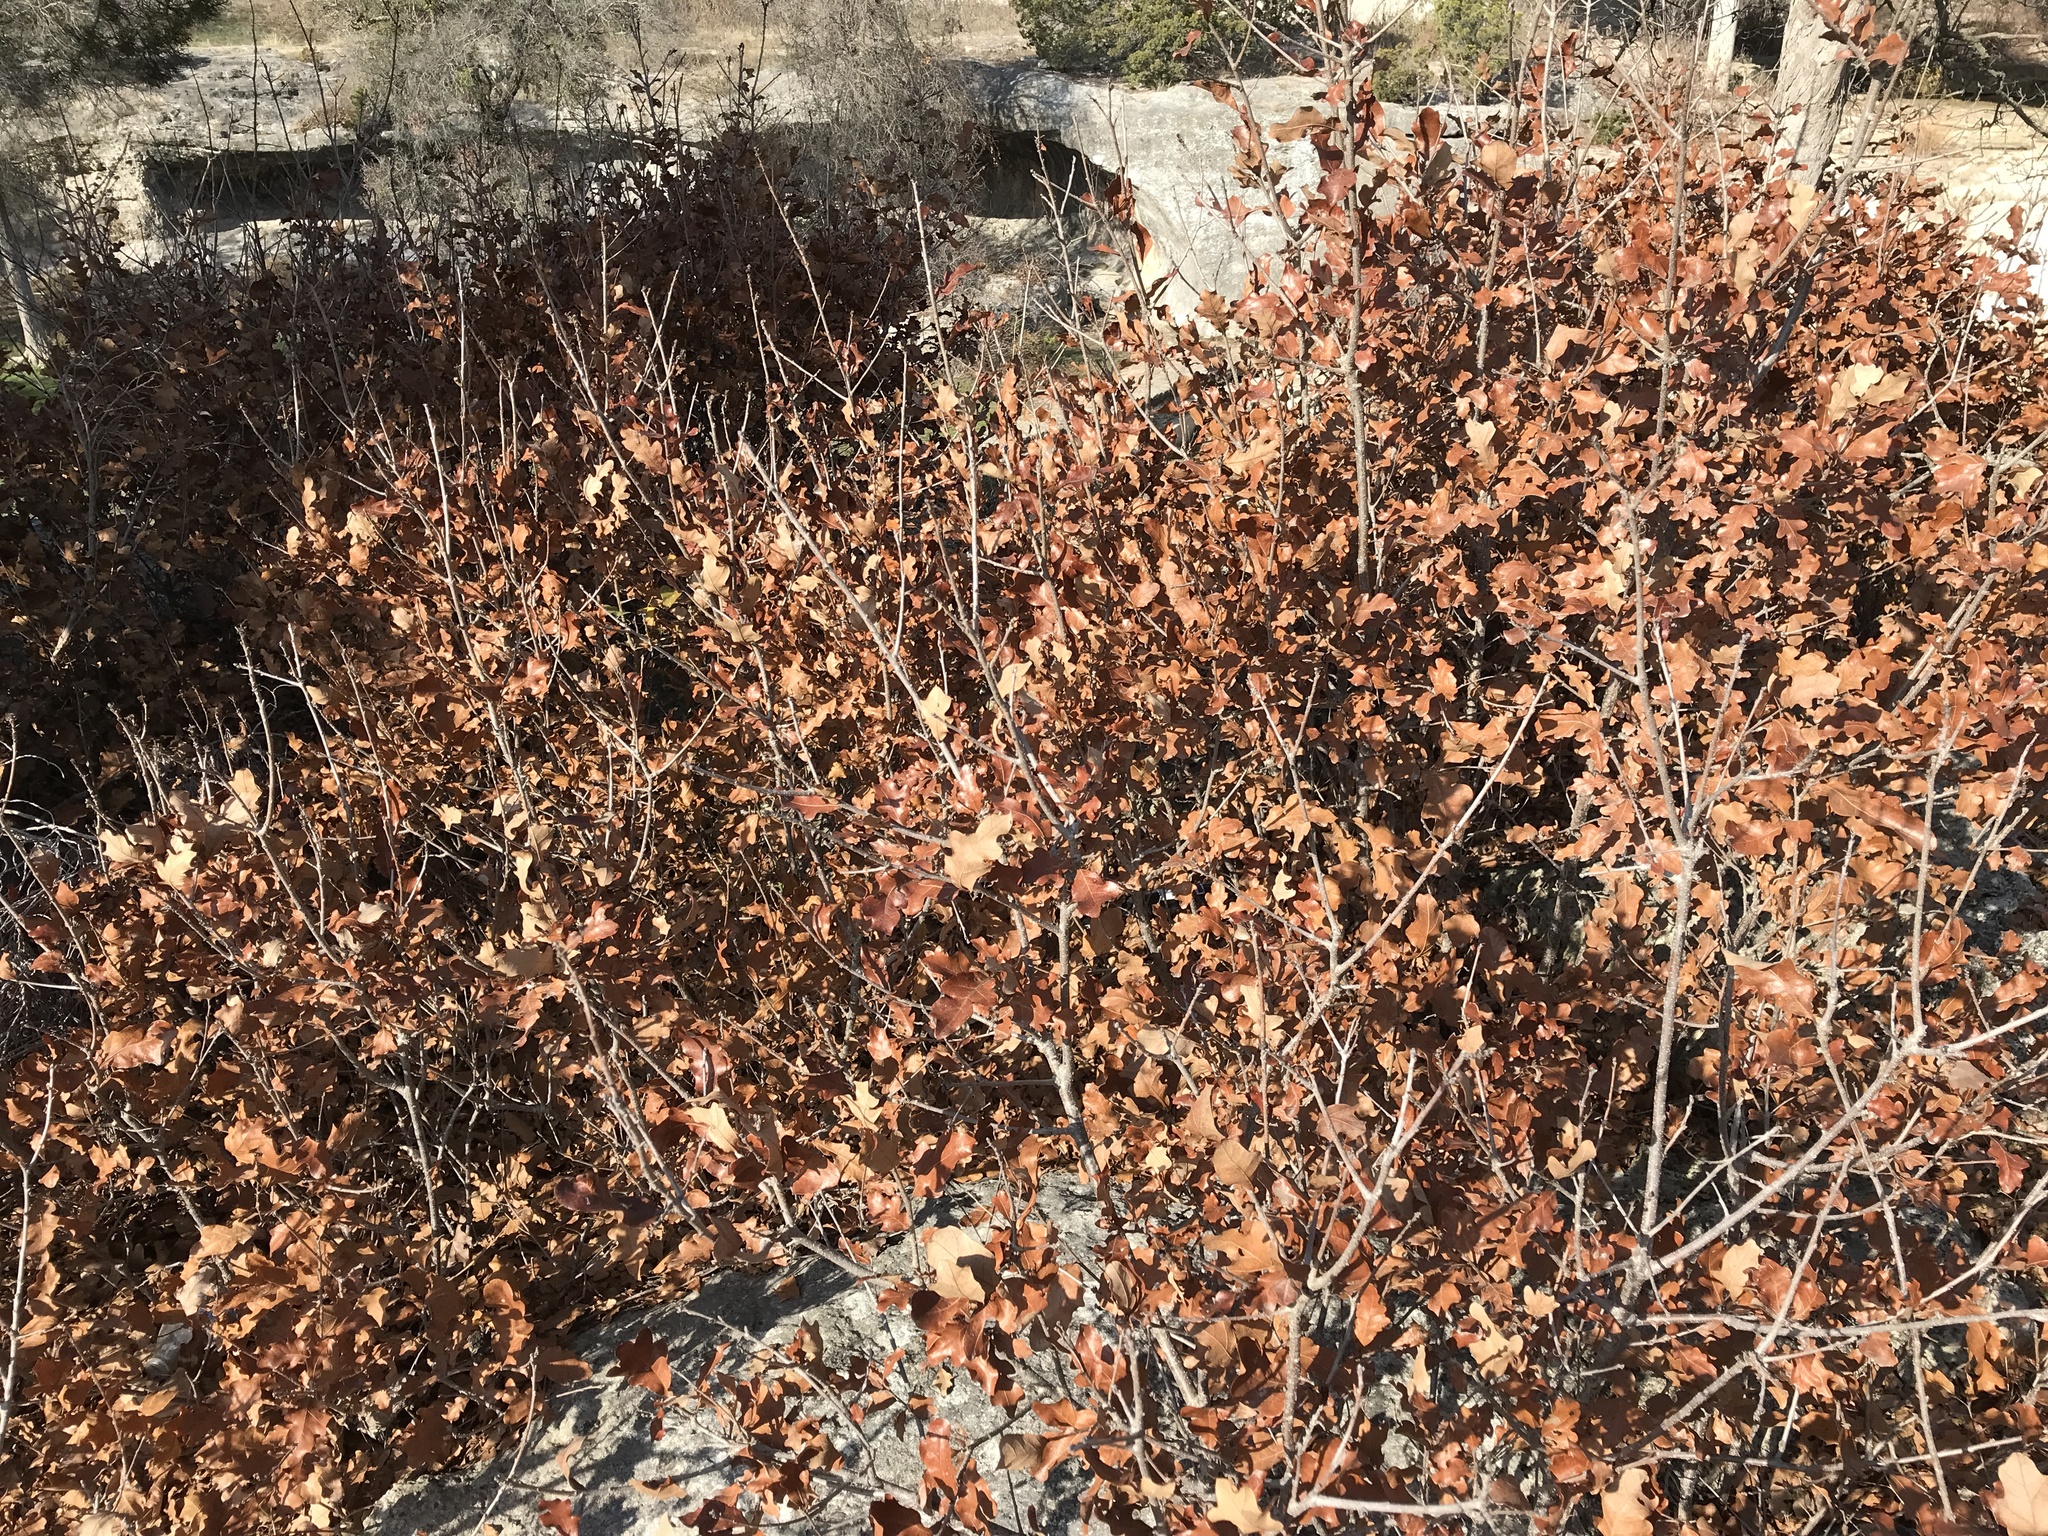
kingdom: Plantae
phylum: Tracheophyta
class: Magnoliopsida
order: Fagales
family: Fagaceae
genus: Quercus
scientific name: Quercus sinuata
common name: Durand oak
